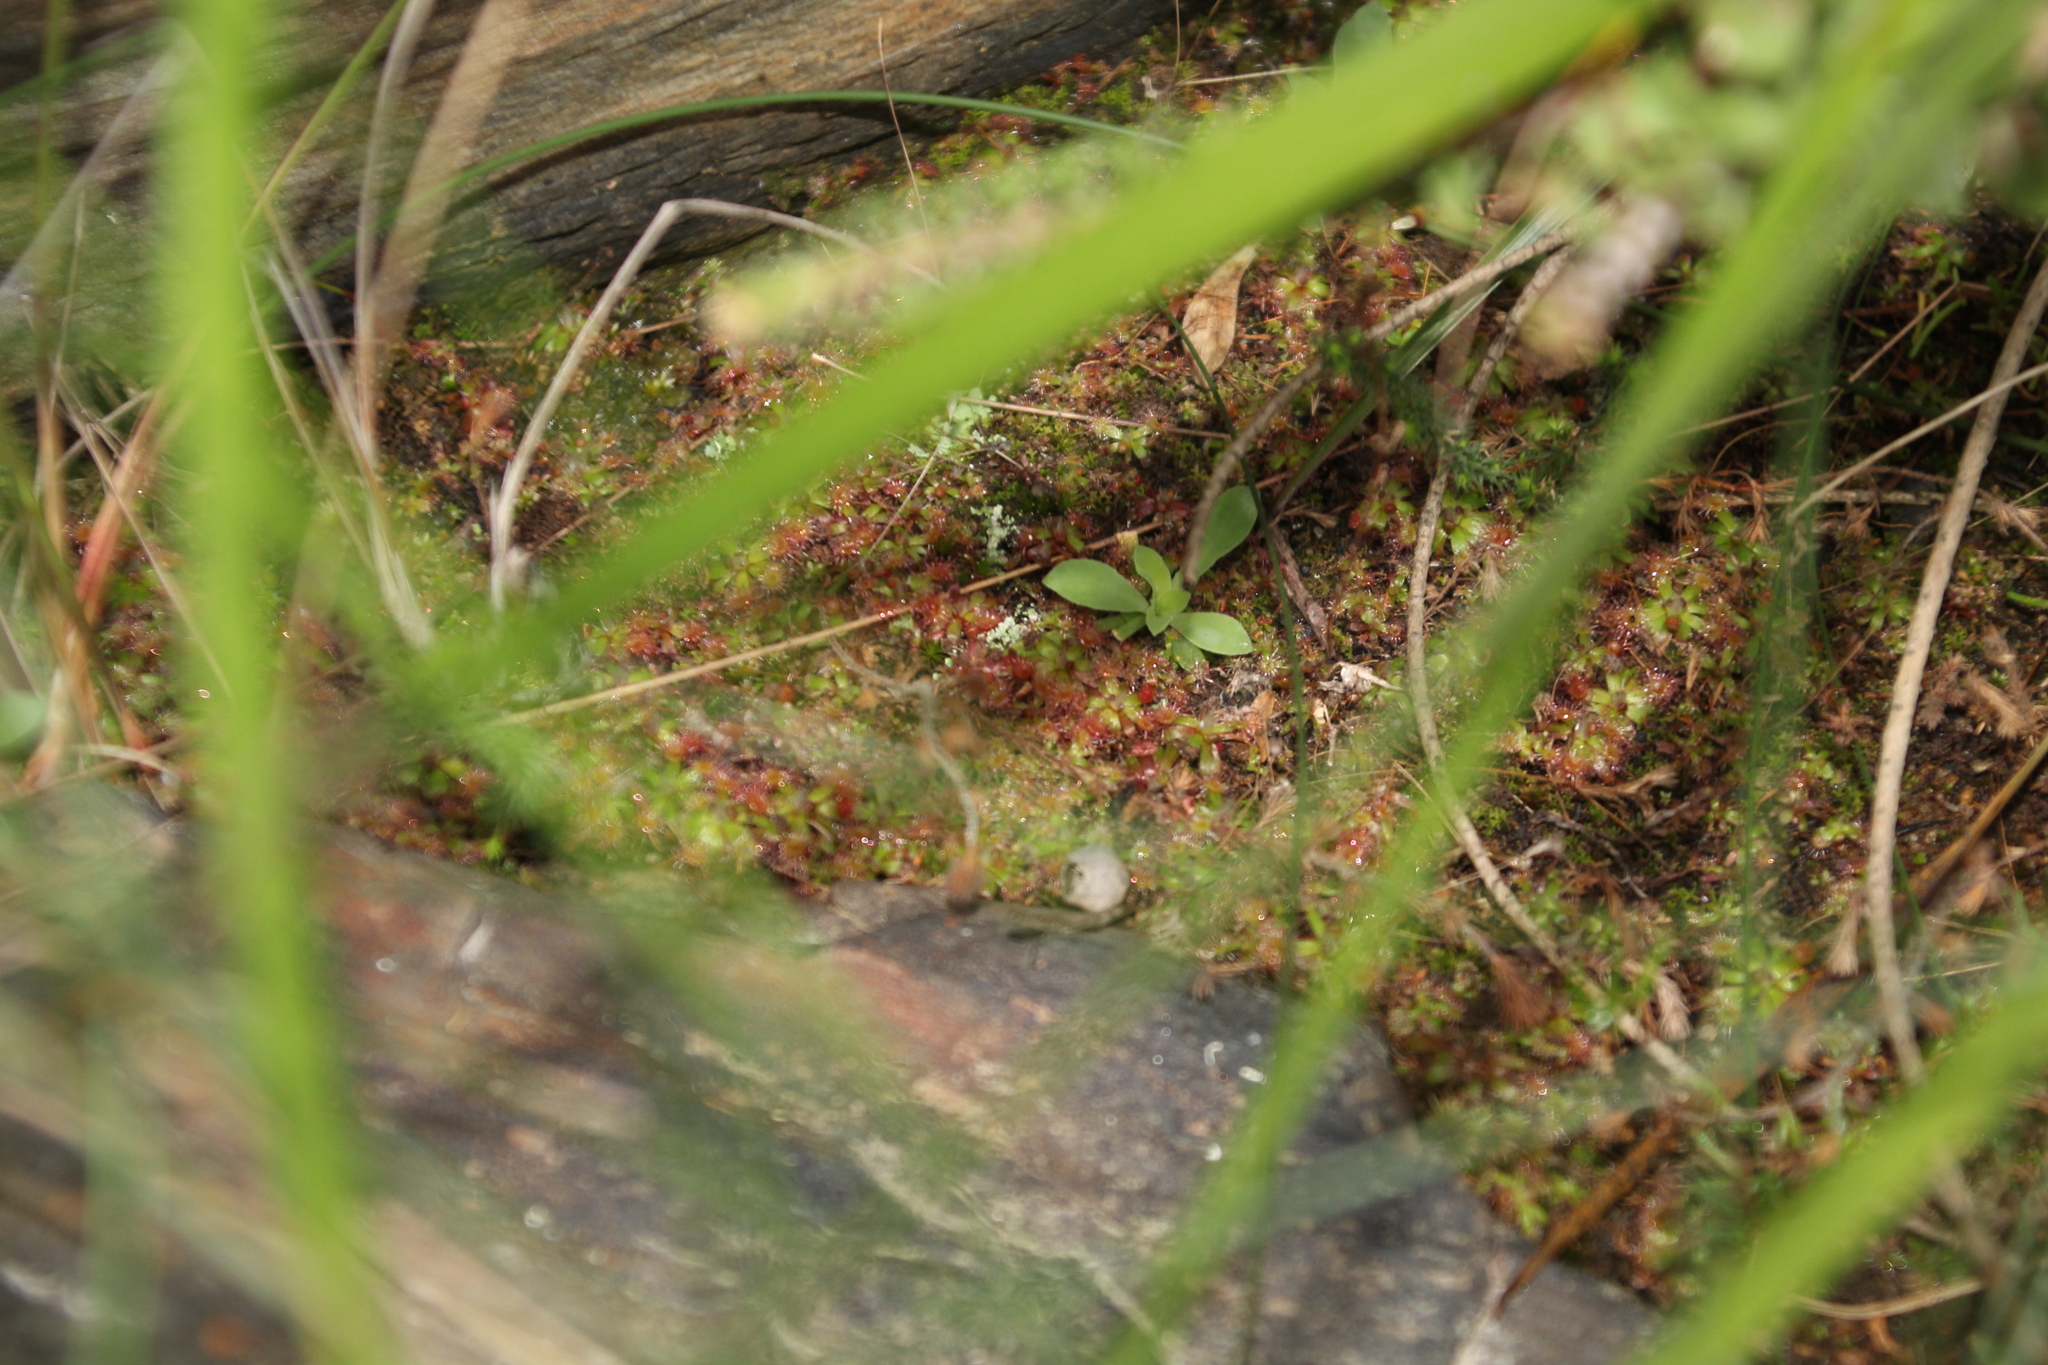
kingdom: Plantae
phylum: Tracheophyta
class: Magnoliopsida
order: Caryophyllales
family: Droseraceae
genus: Drosera
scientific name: Drosera pulchella
